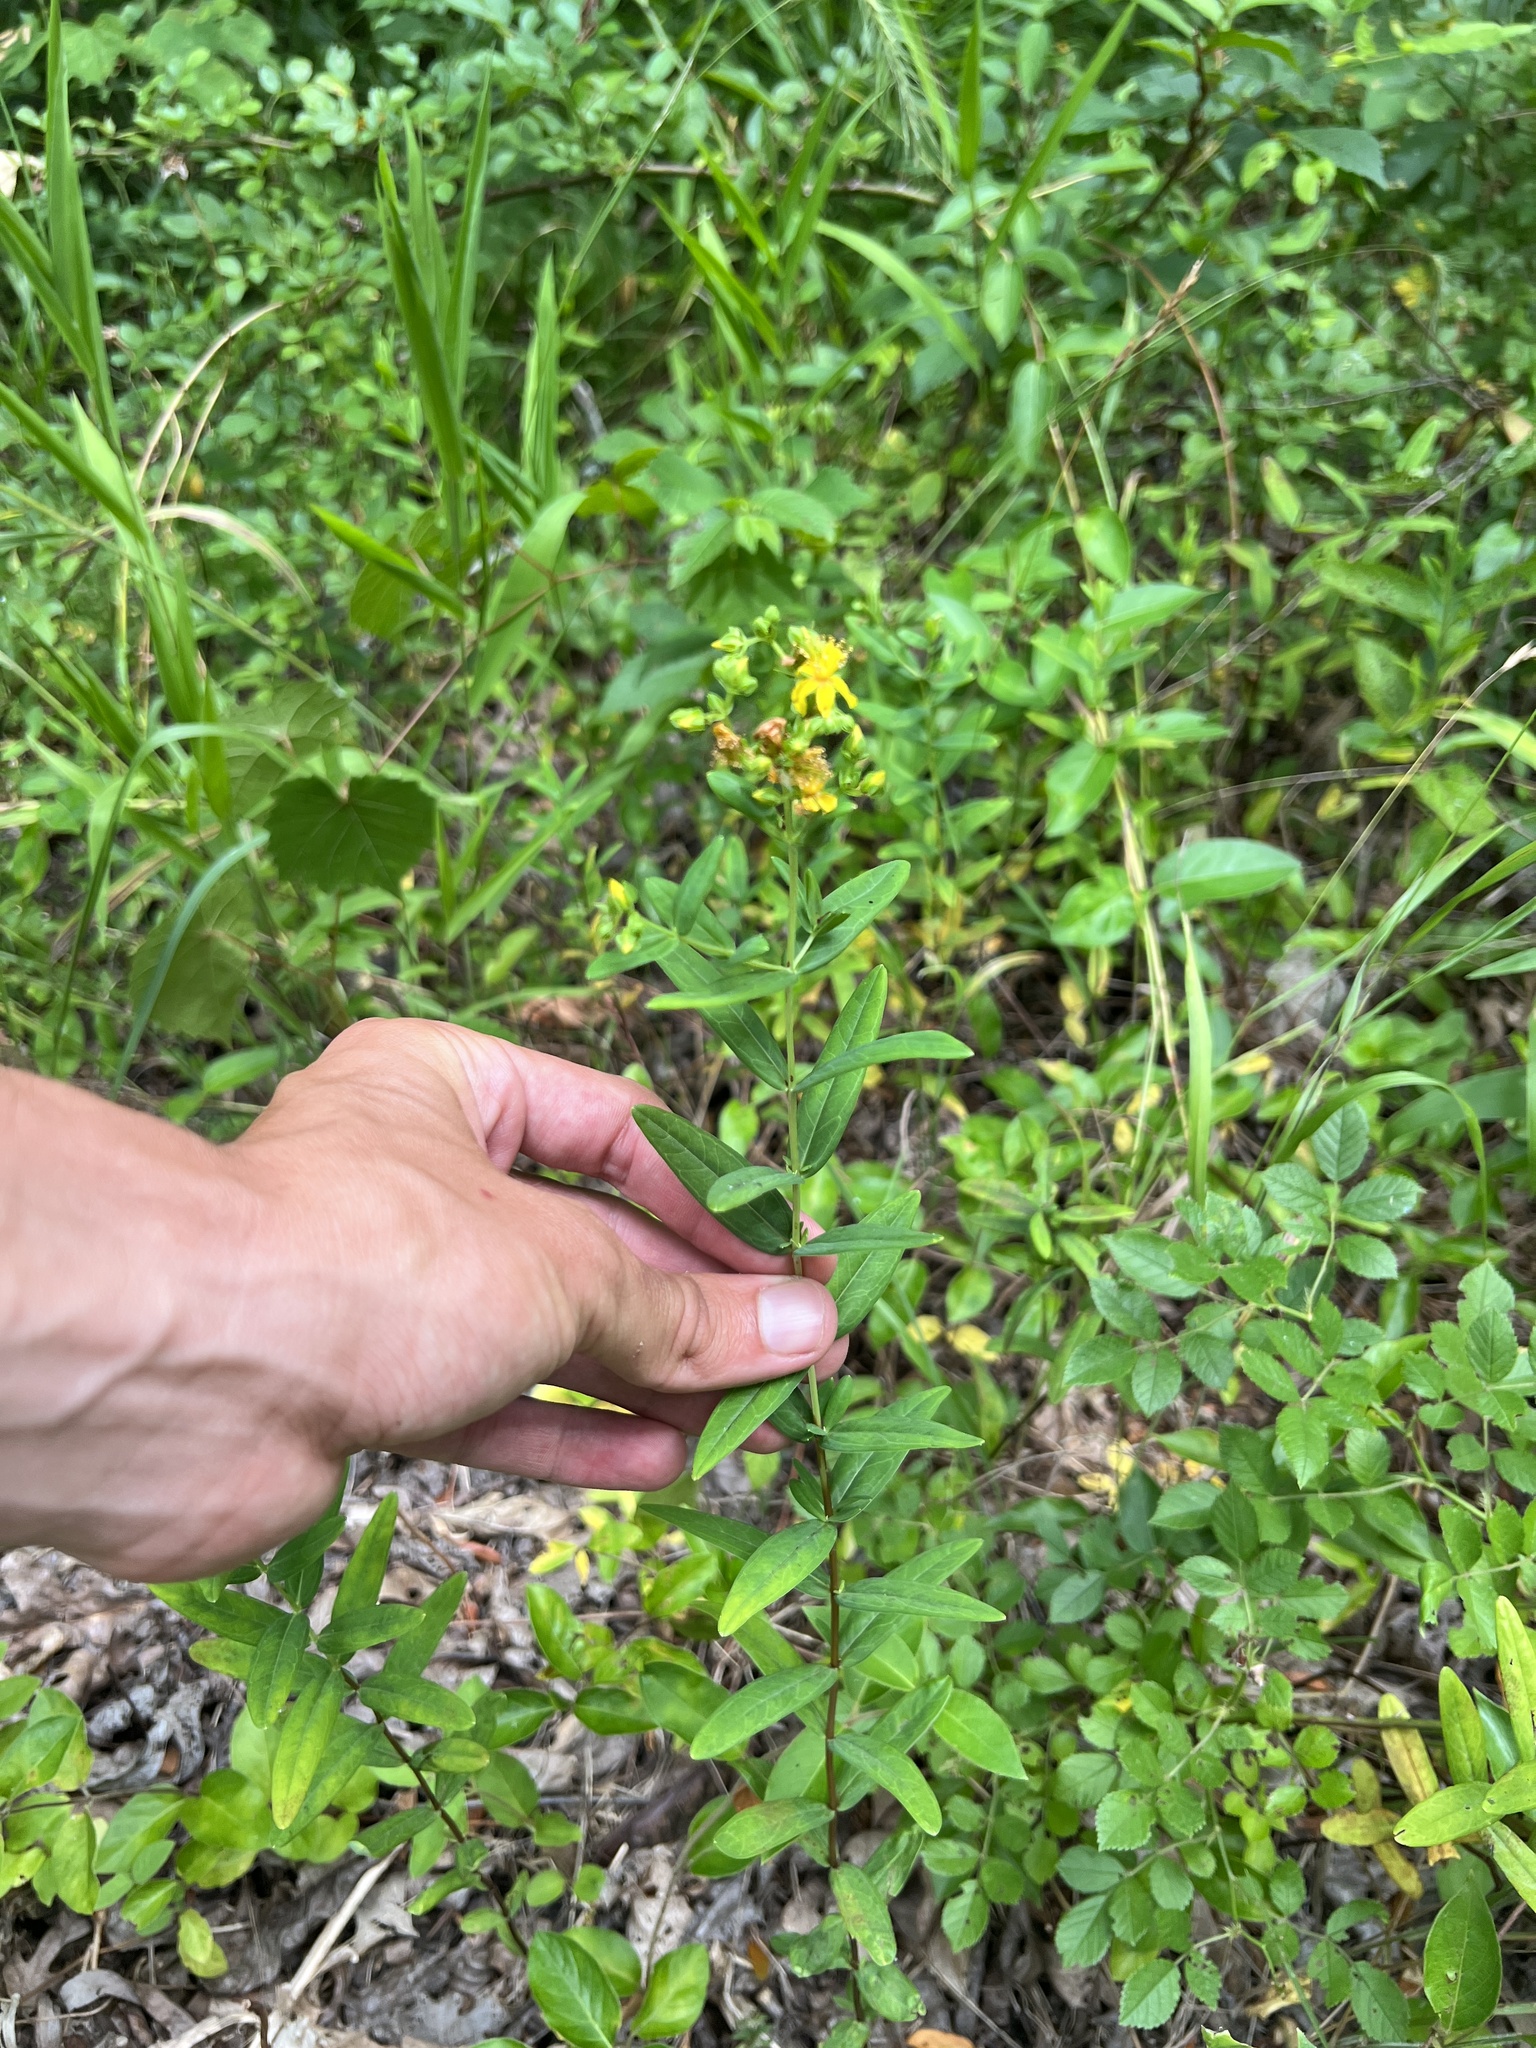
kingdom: Plantae
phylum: Tracheophyta
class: Magnoliopsida
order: Malpighiales
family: Hypericaceae
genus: Hypericum
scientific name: Hypericum sphaerocarpum
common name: Round-fruited st. john's-wort
